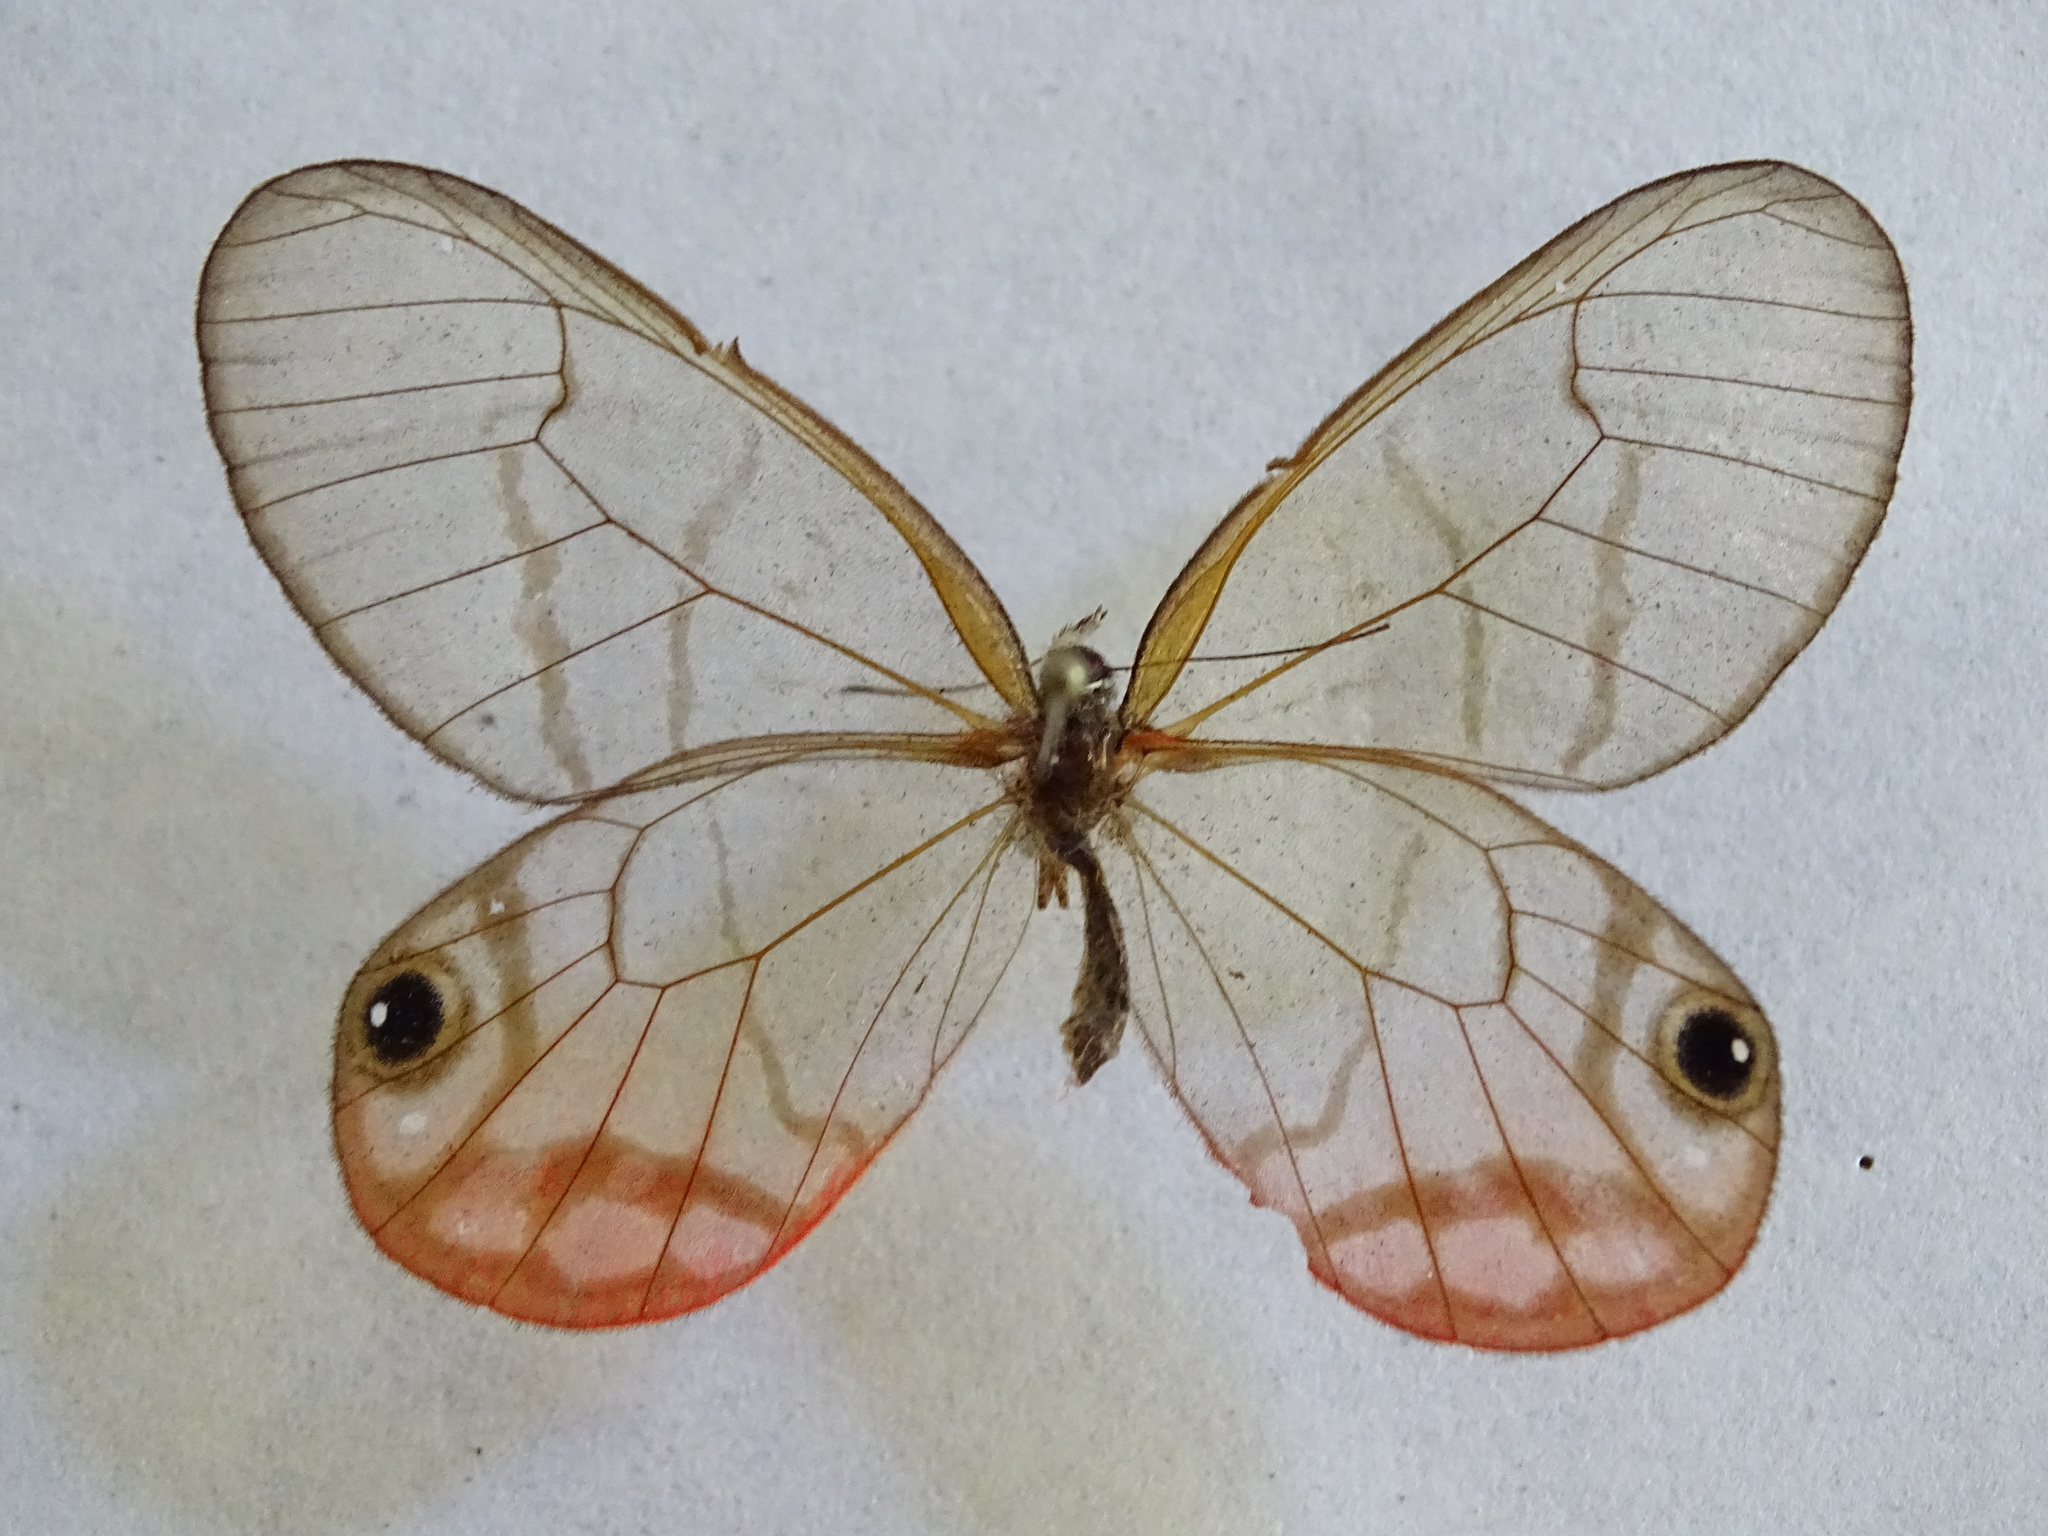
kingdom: Animalia
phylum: Arthropoda
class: Insecta
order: Lepidoptera
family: Nymphalidae
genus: Cithaerias
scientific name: Cithaerias pireta
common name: Rusted clearwing-satyr
